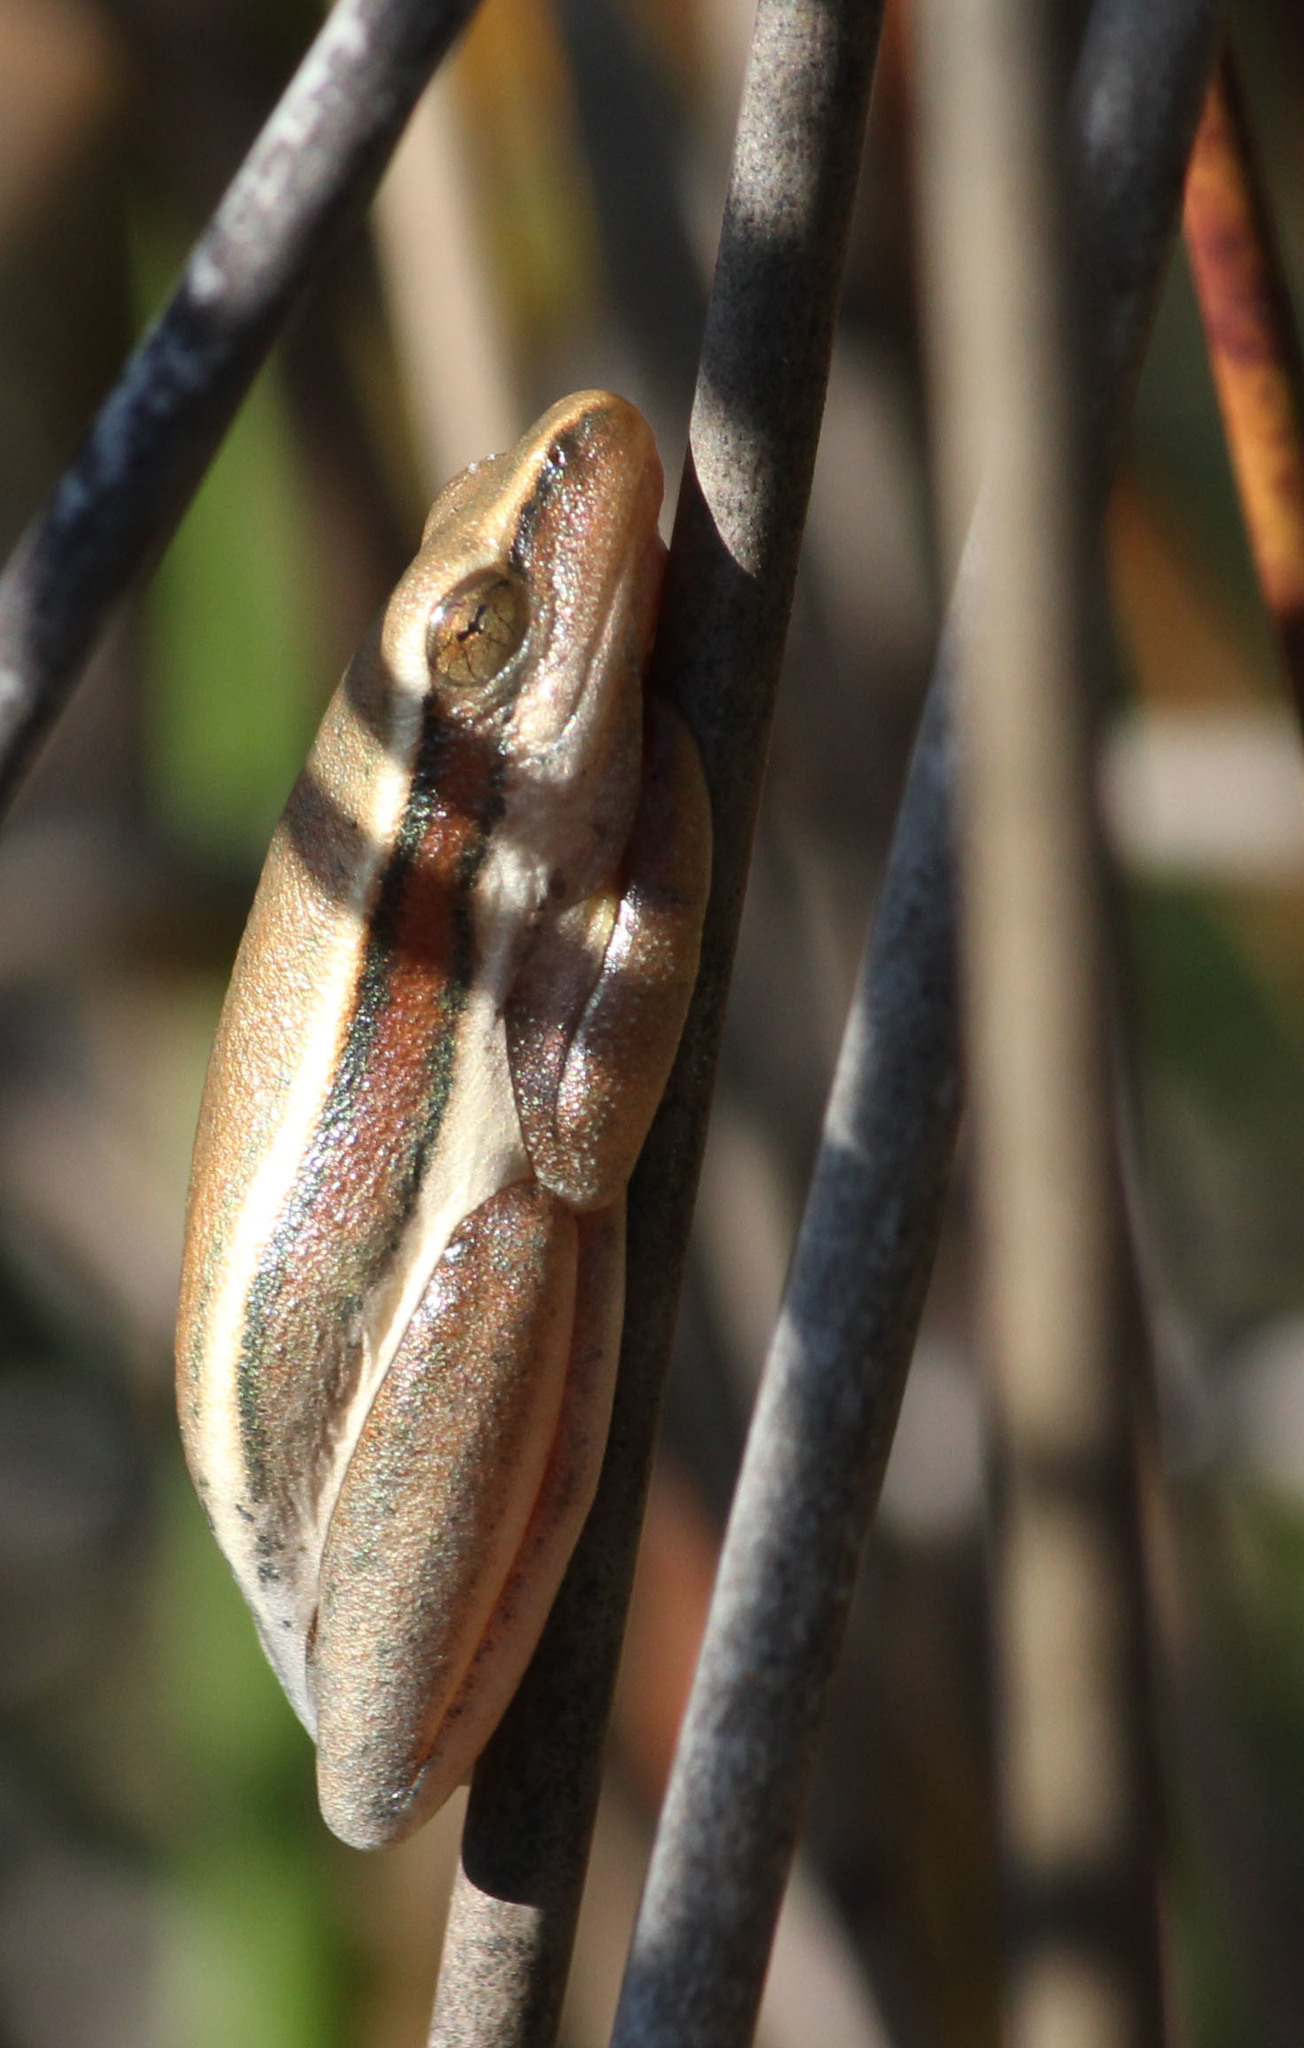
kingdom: Animalia
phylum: Chordata
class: Amphibia
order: Anura
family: Hyperoliidae
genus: Hyperolius
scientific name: Hyperolius horstockii
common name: Arum lily frog
